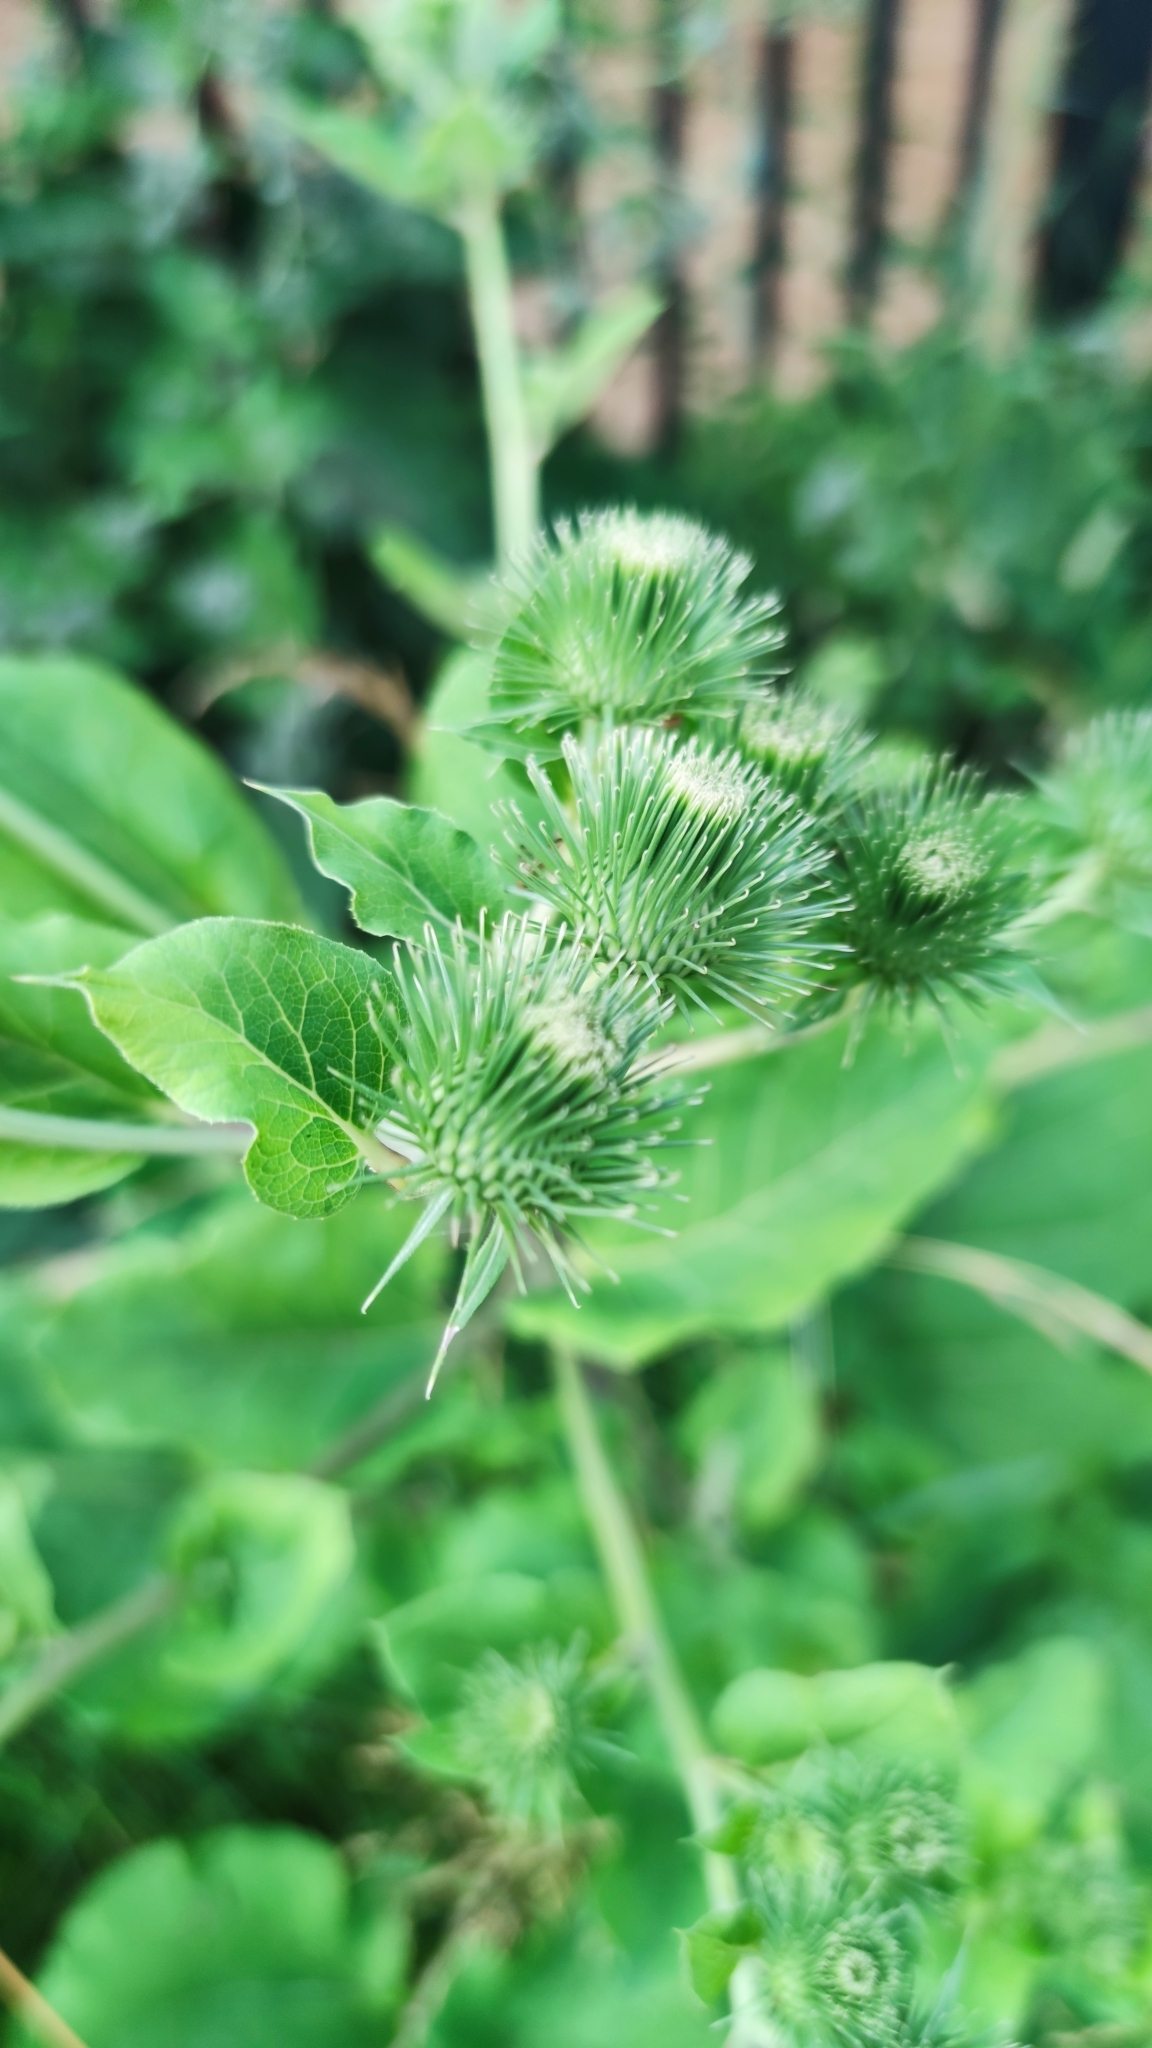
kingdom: Plantae
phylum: Tracheophyta
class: Magnoliopsida
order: Asterales
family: Asteraceae
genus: Arctium
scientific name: Arctium lappa
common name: Greater burdock
